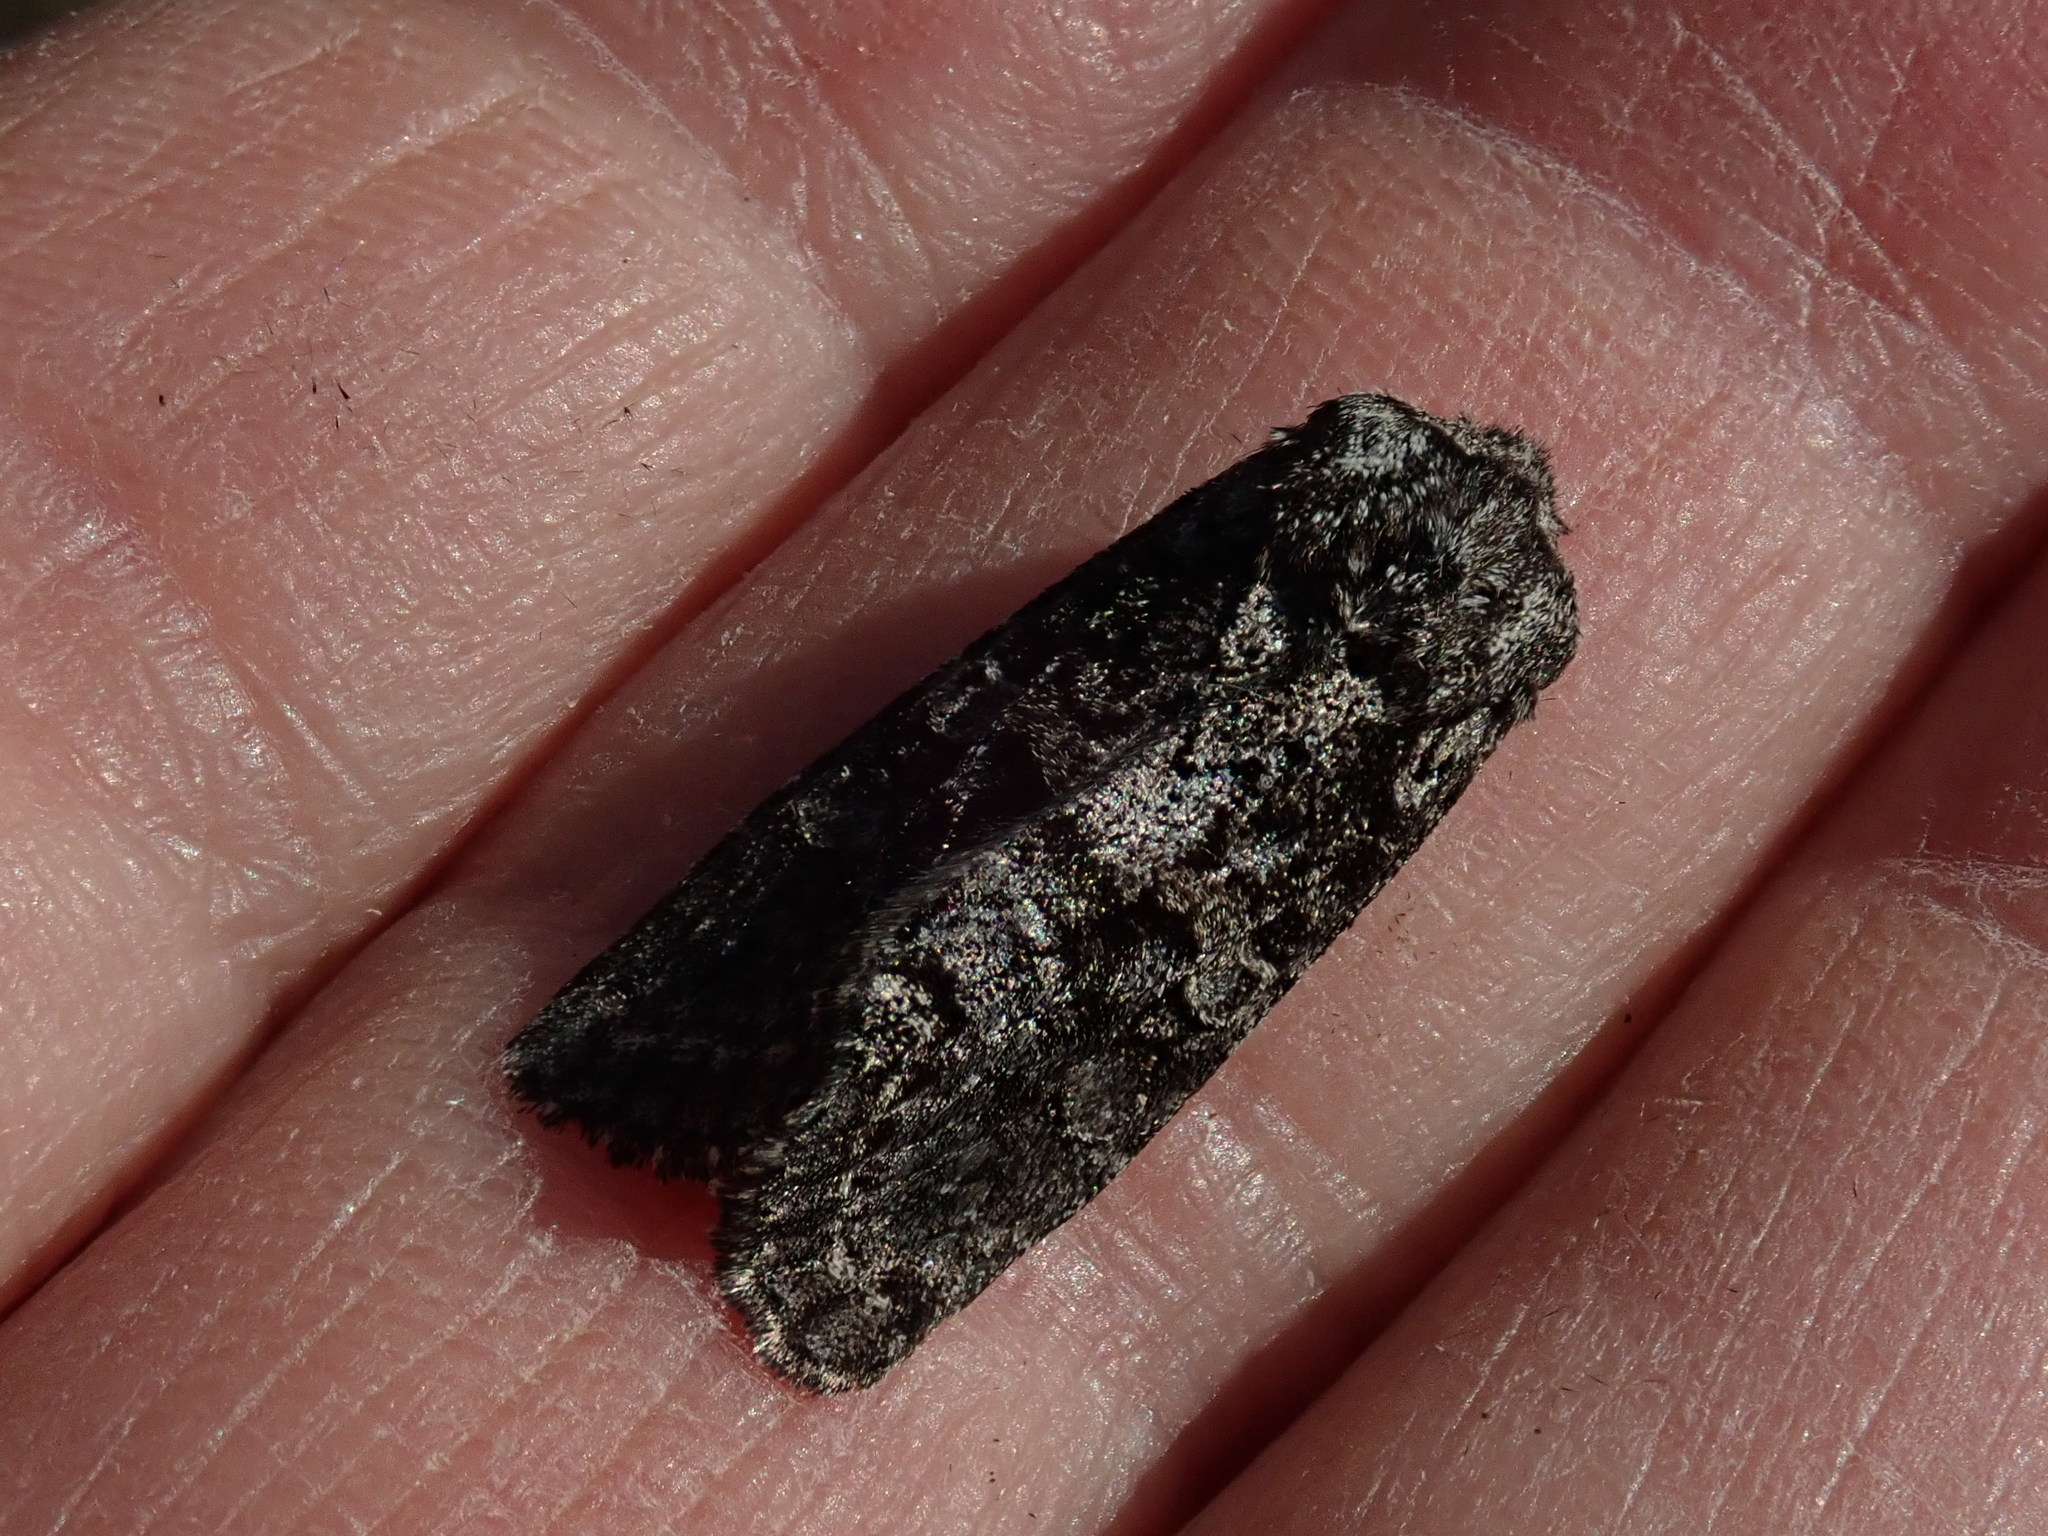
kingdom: Animalia
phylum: Arthropoda
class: Insecta
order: Lepidoptera
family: Noctuidae
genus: Egira
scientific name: Egira dolosa
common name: Lined black aspen cat.
